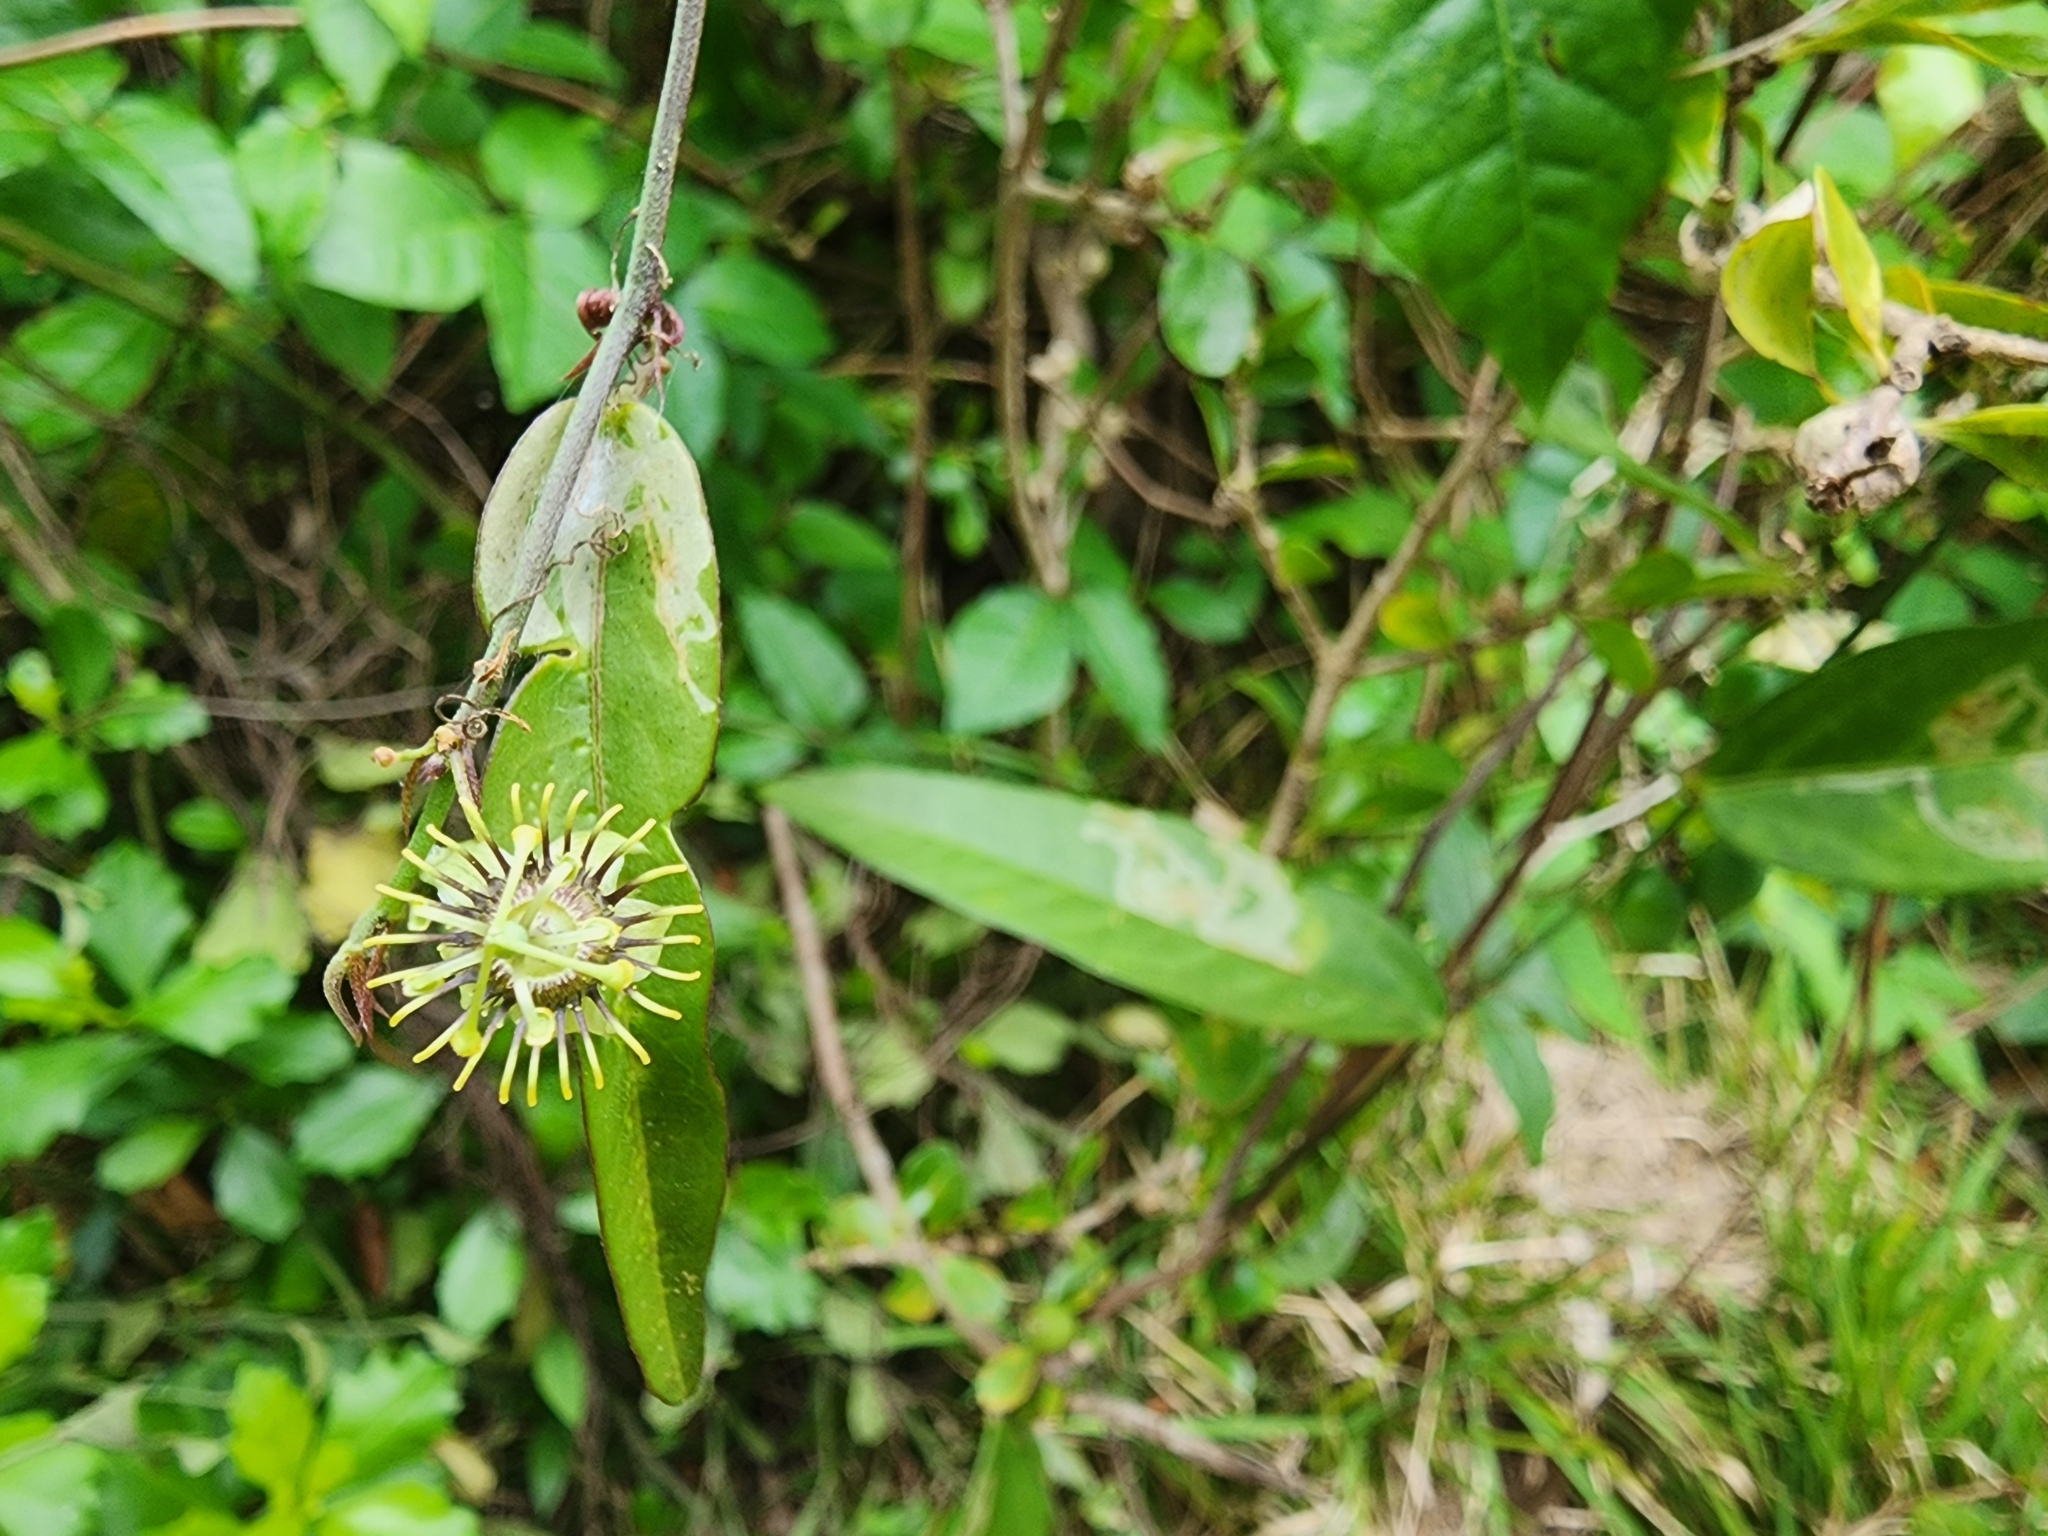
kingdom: Plantae
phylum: Tracheophyta
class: Magnoliopsida
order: Malpighiales
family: Passifloraceae
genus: Passiflora
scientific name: Passiflora pallida
